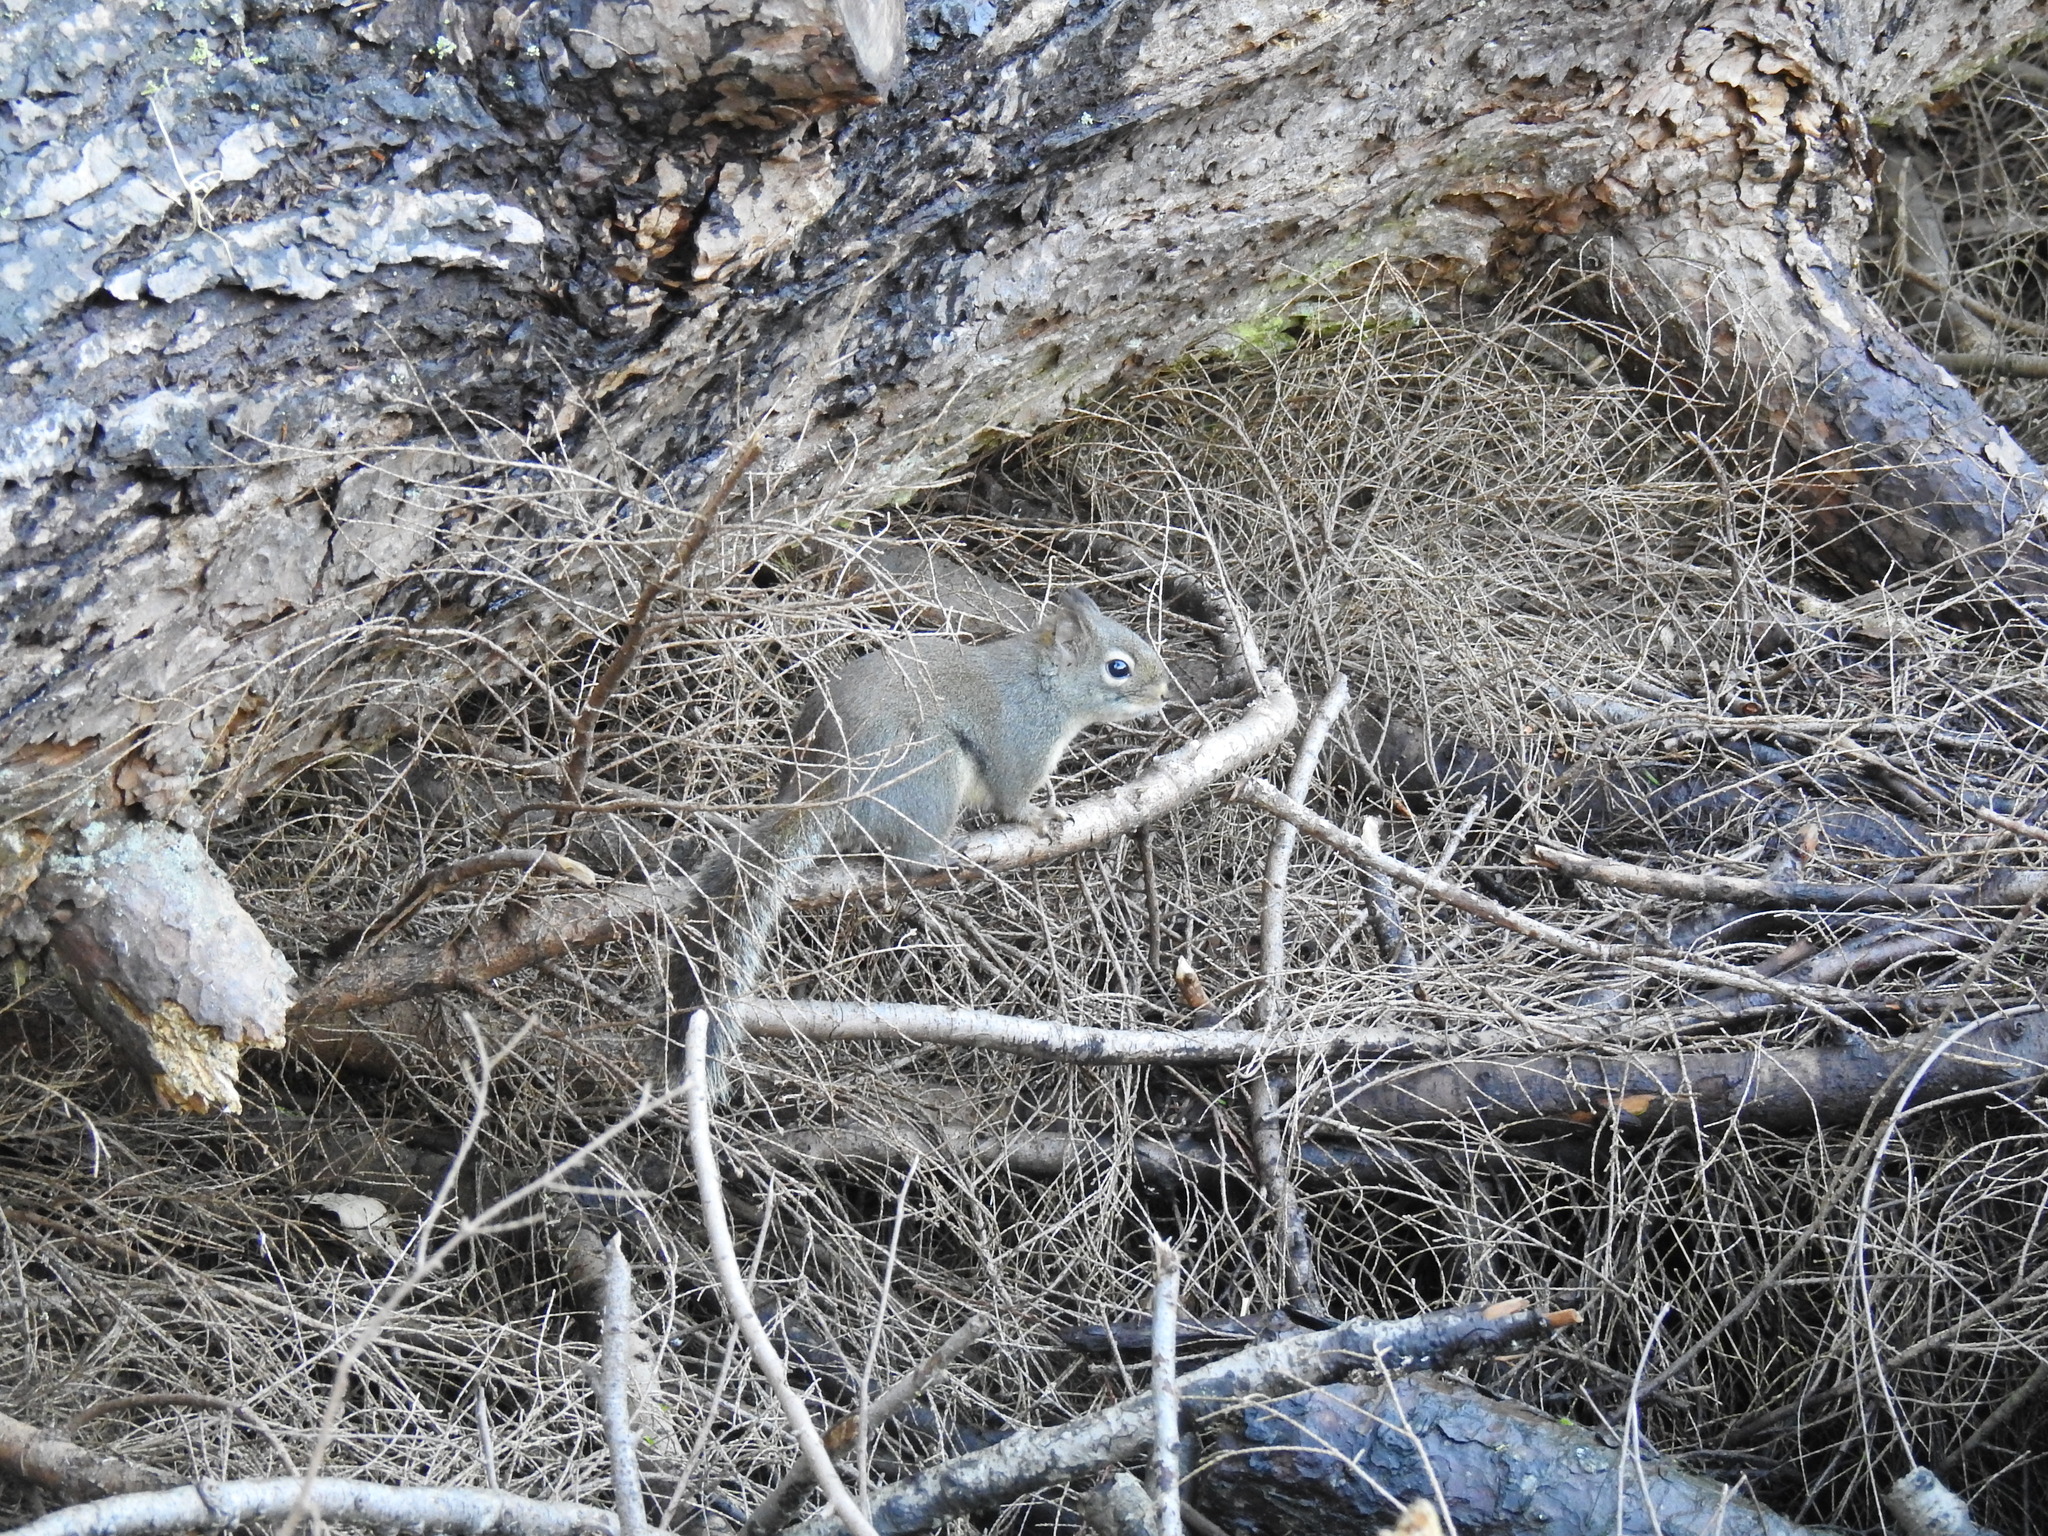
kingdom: Animalia
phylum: Chordata
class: Mammalia
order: Rodentia
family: Sciuridae
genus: Tamiasciurus
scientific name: Tamiasciurus douglasii
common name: Douglas's squirrel
